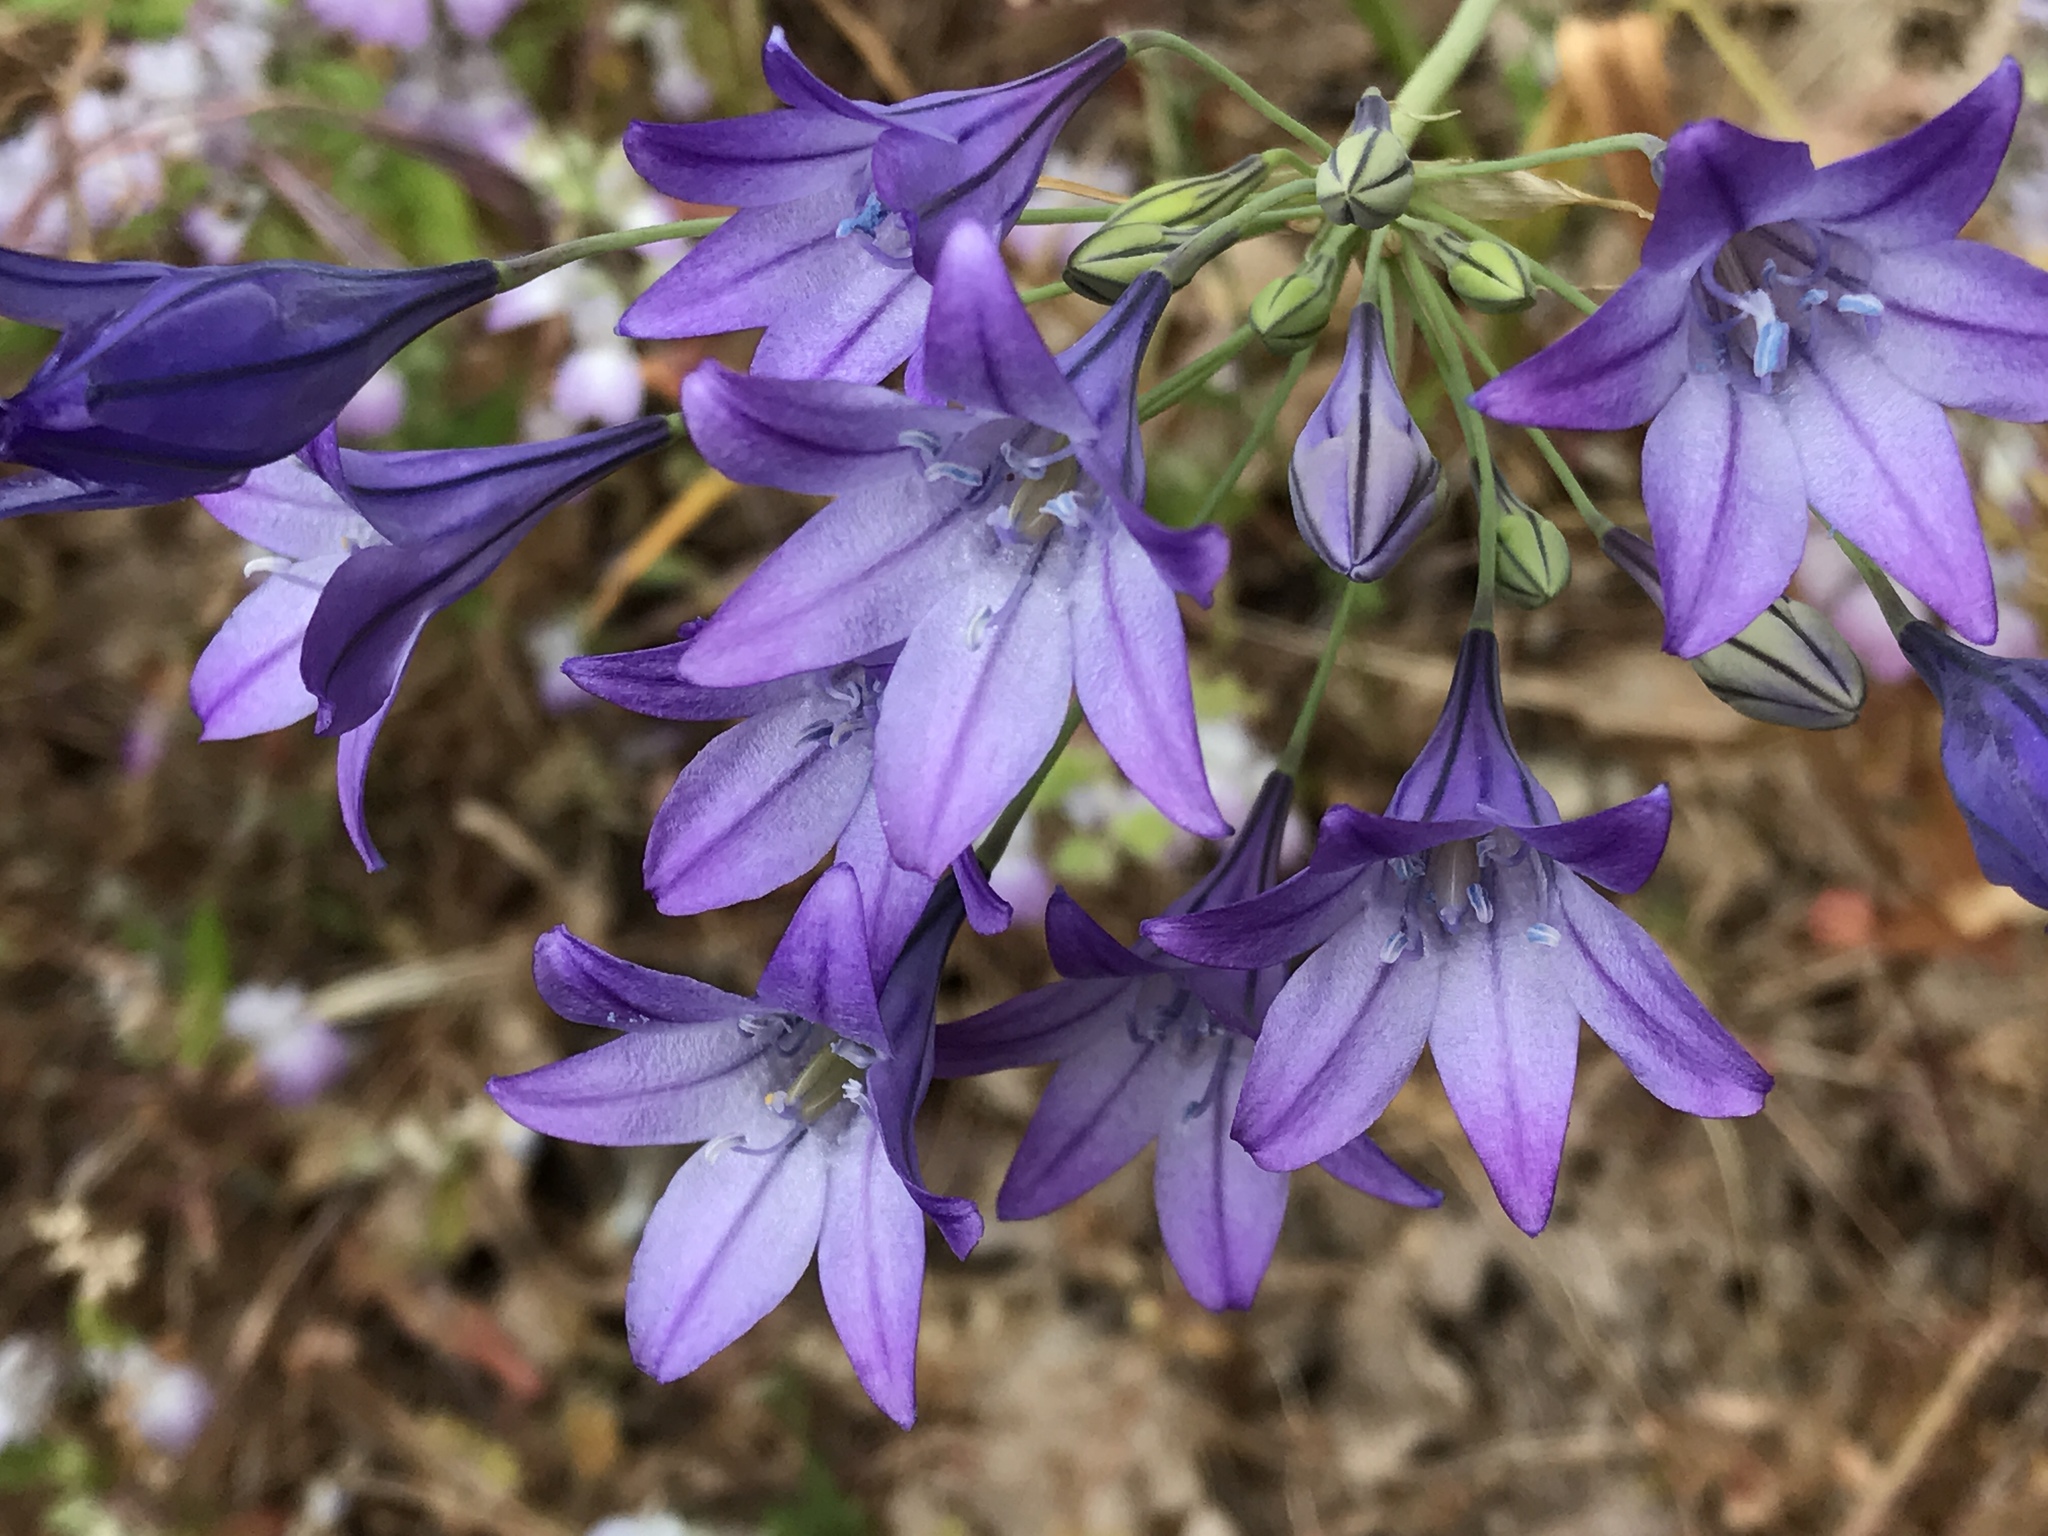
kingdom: Plantae
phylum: Tracheophyta
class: Liliopsida
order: Asparagales
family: Asparagaceae
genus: Triteleia
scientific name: Triteleia laxa
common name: Triplet-lily
